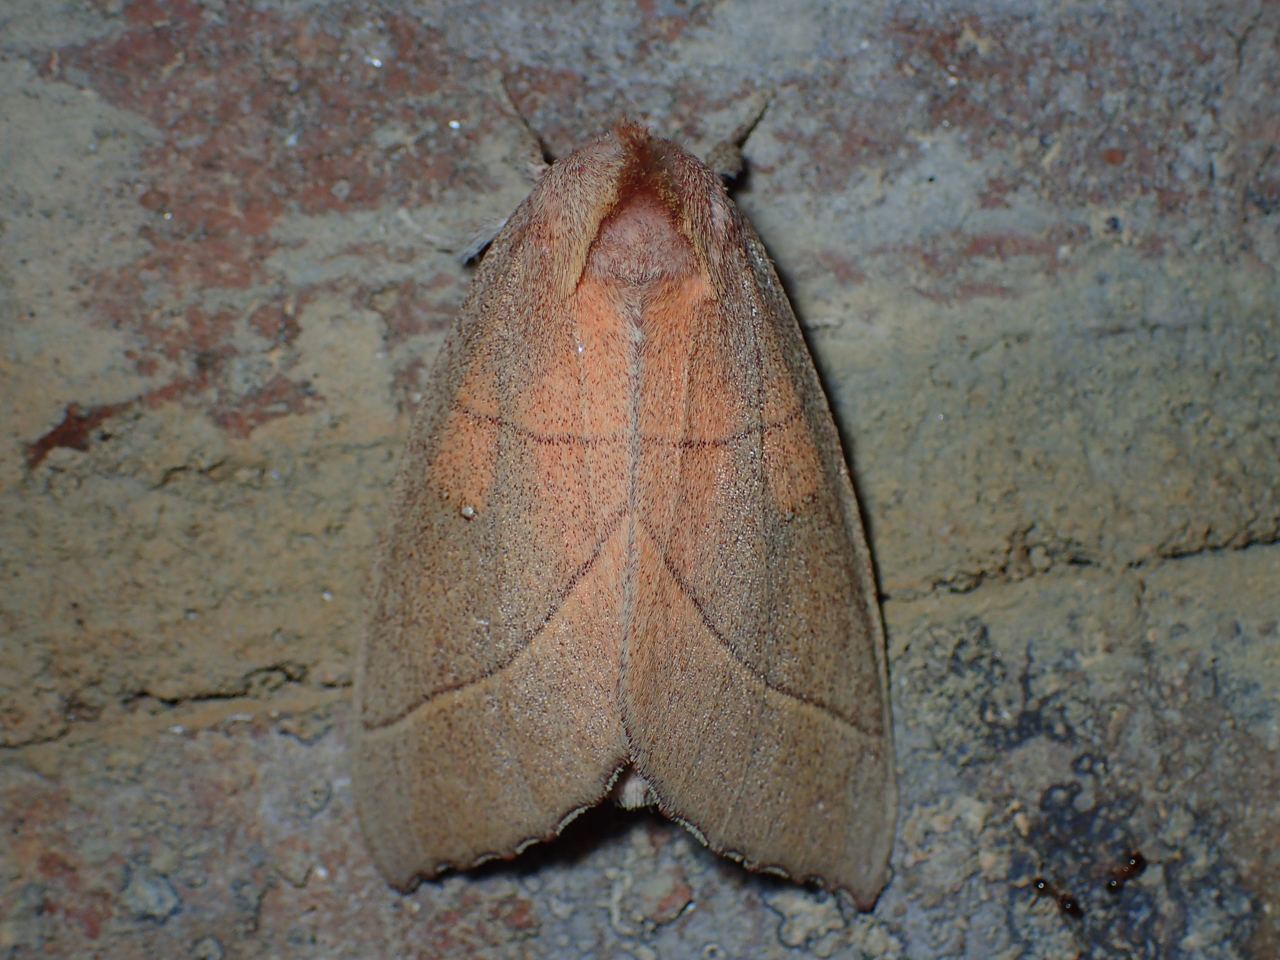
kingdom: Animalia
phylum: Arthropoda
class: Insecta
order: Lepidoptera
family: Notodontidae
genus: Nadata
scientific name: Nadata gibbosa
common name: White-dotted prominent
